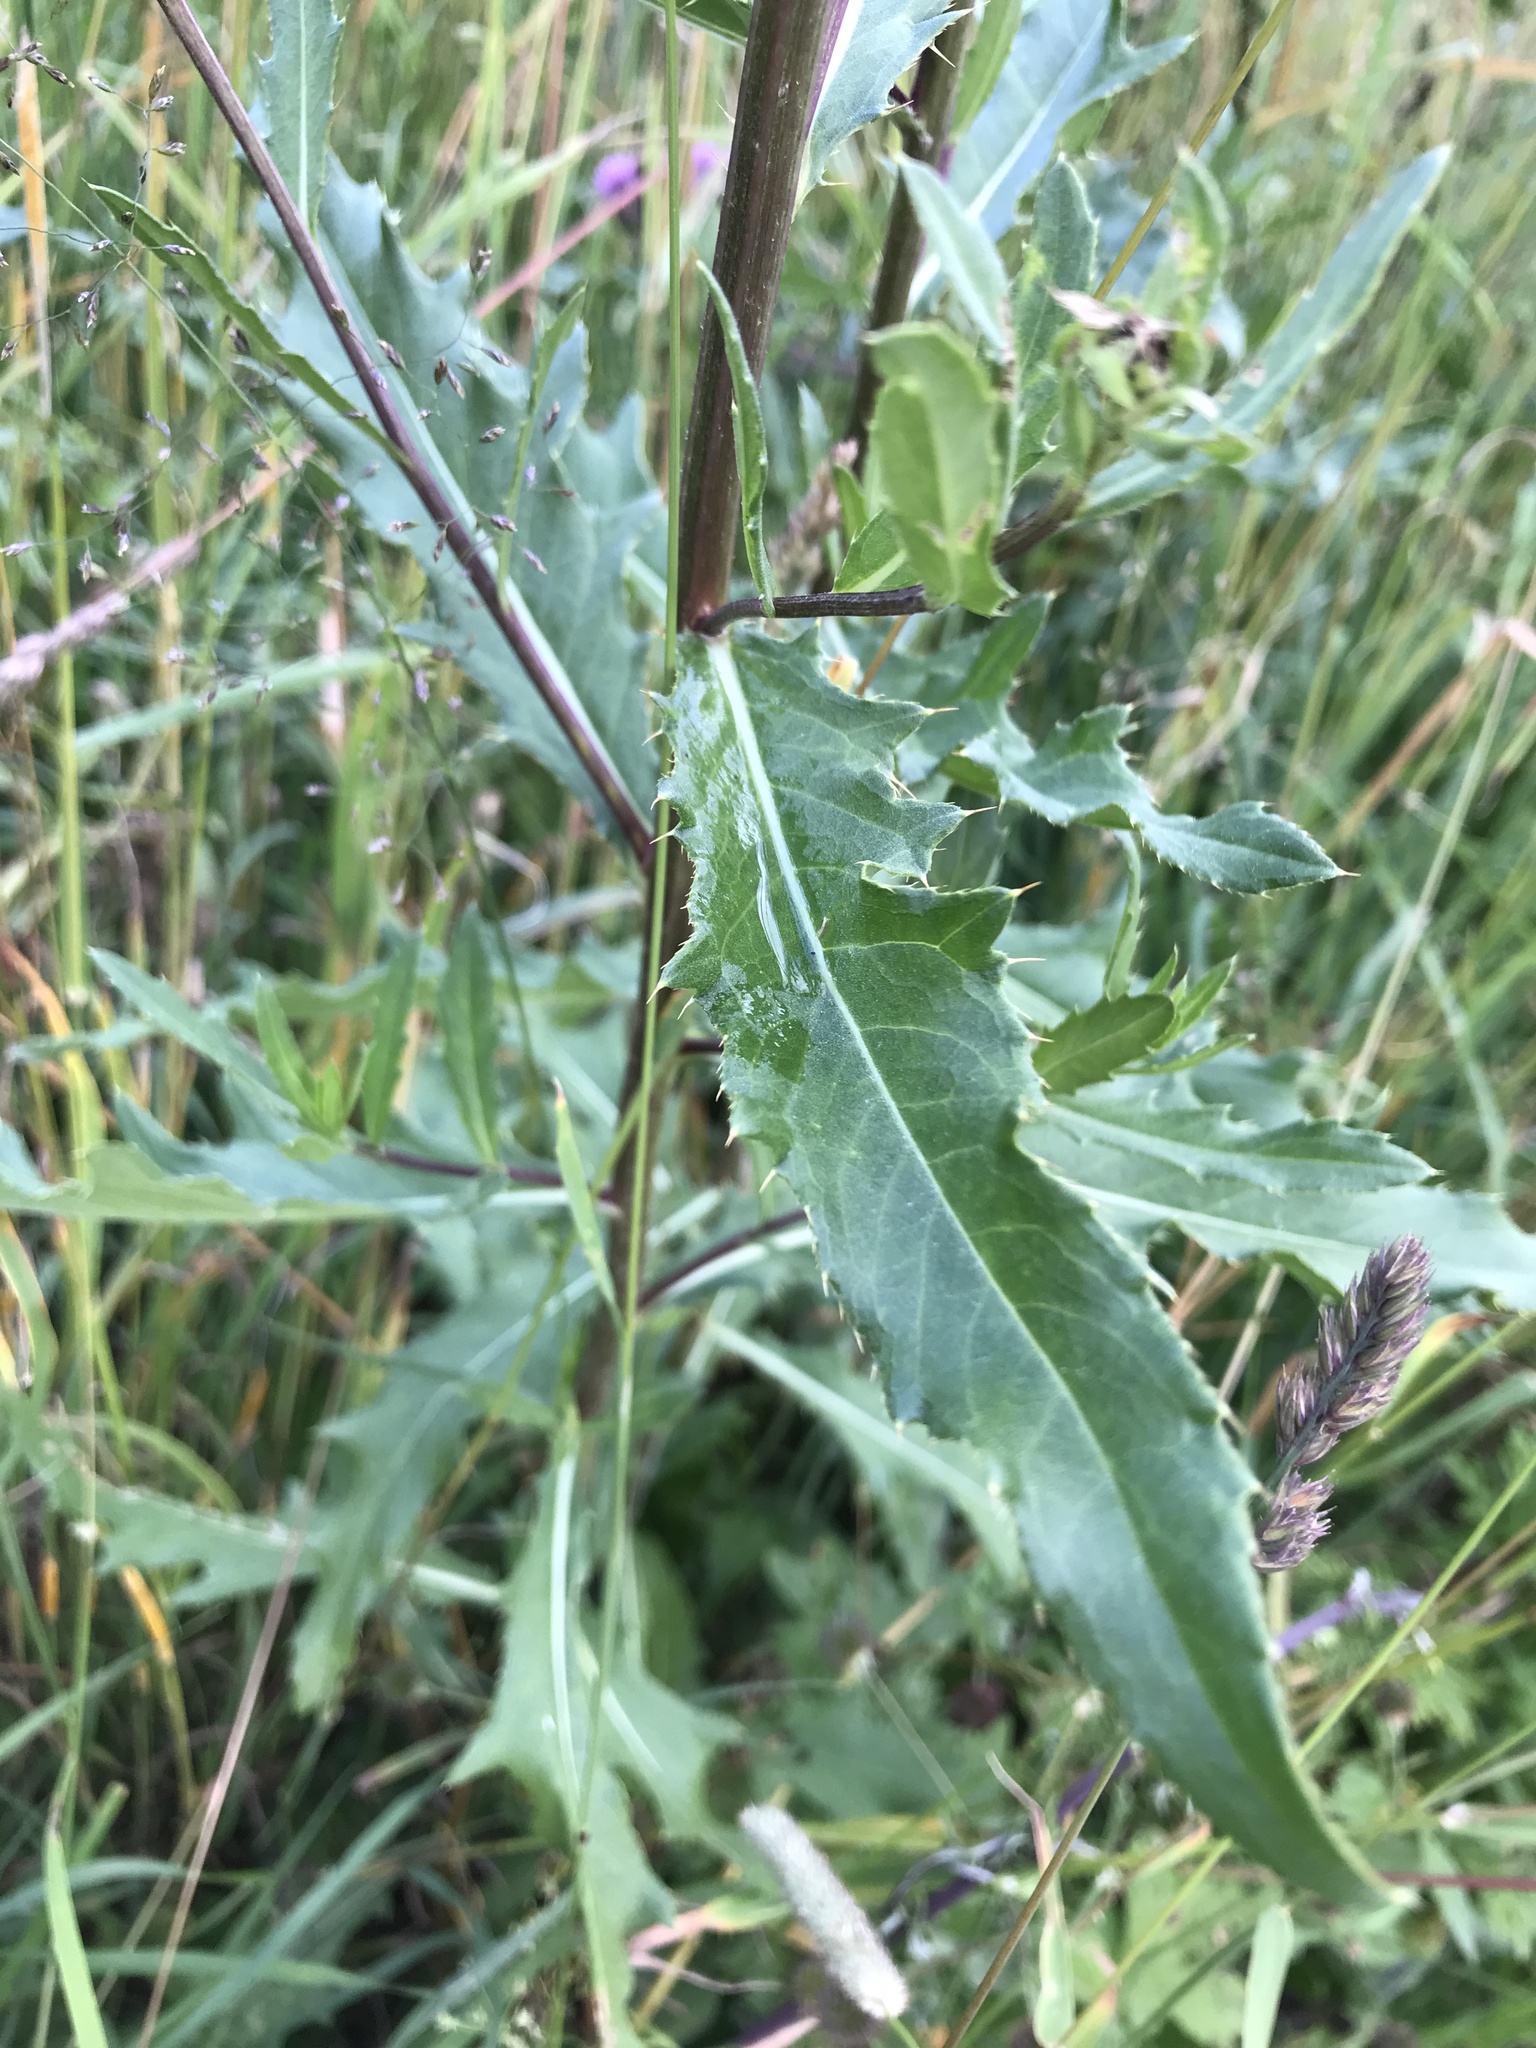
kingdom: Plantae
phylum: Tracheophyta
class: Magnoliopsida
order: Asterales
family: Asteraceae
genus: Cirsium
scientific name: Cirsium arvense
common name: Creeping thistle
